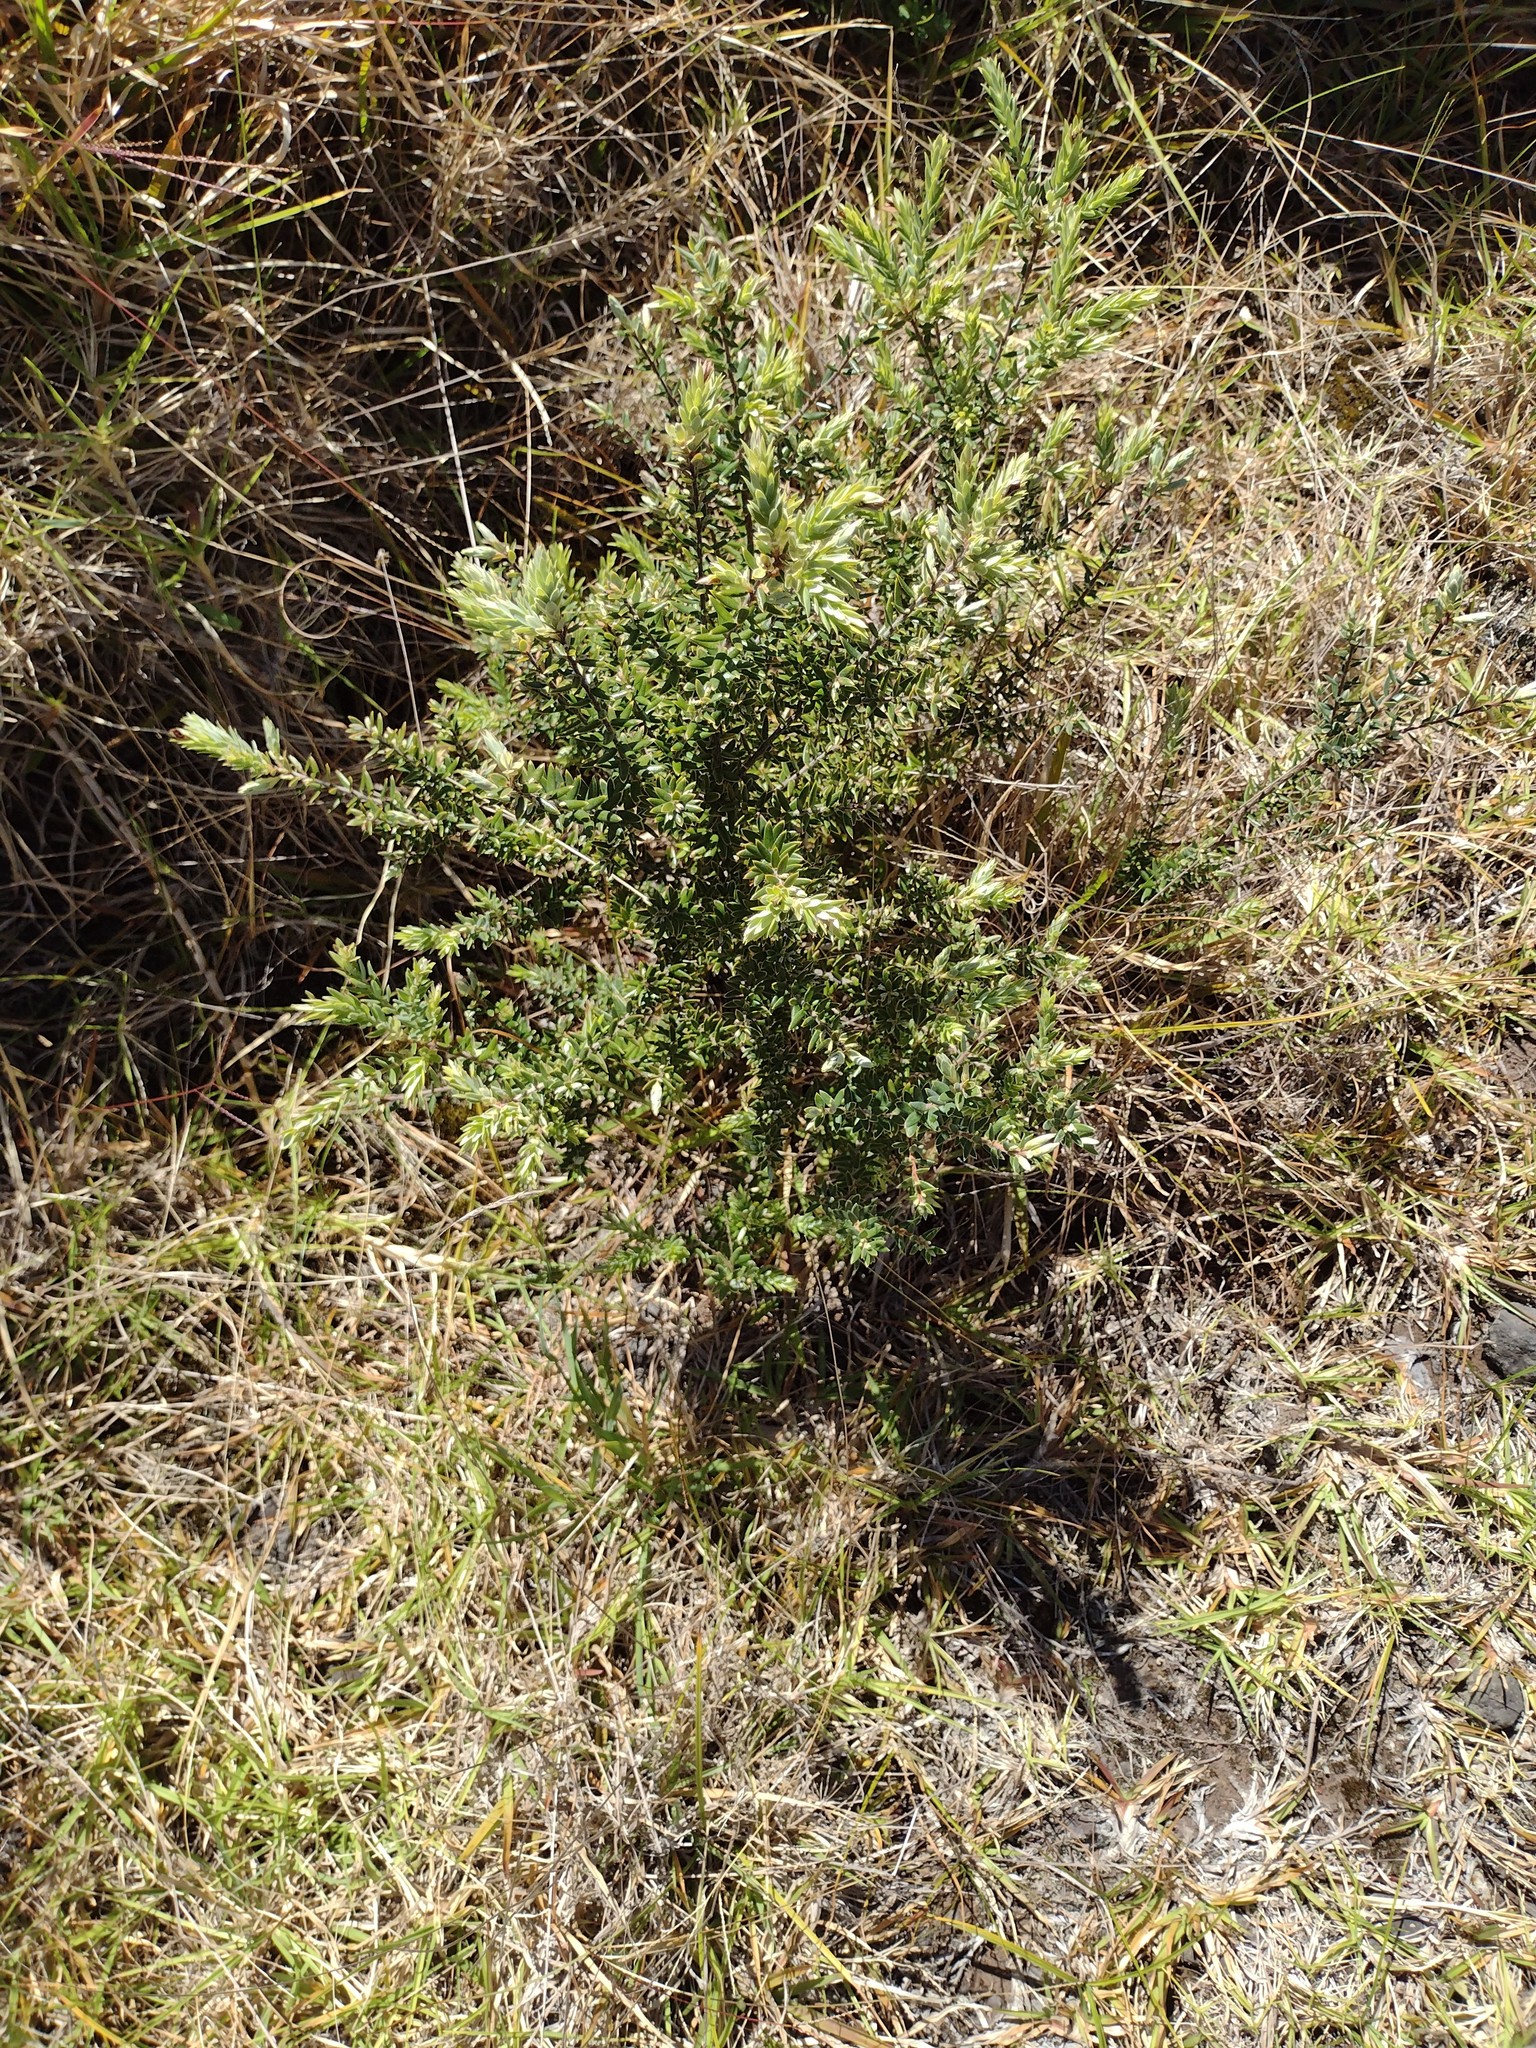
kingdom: Plantae
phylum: Tracheophyta
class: Magnoliopsida
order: Ericales
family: Ericaceae
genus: Leptecophylla
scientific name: Leptecophylla tameiameiae
